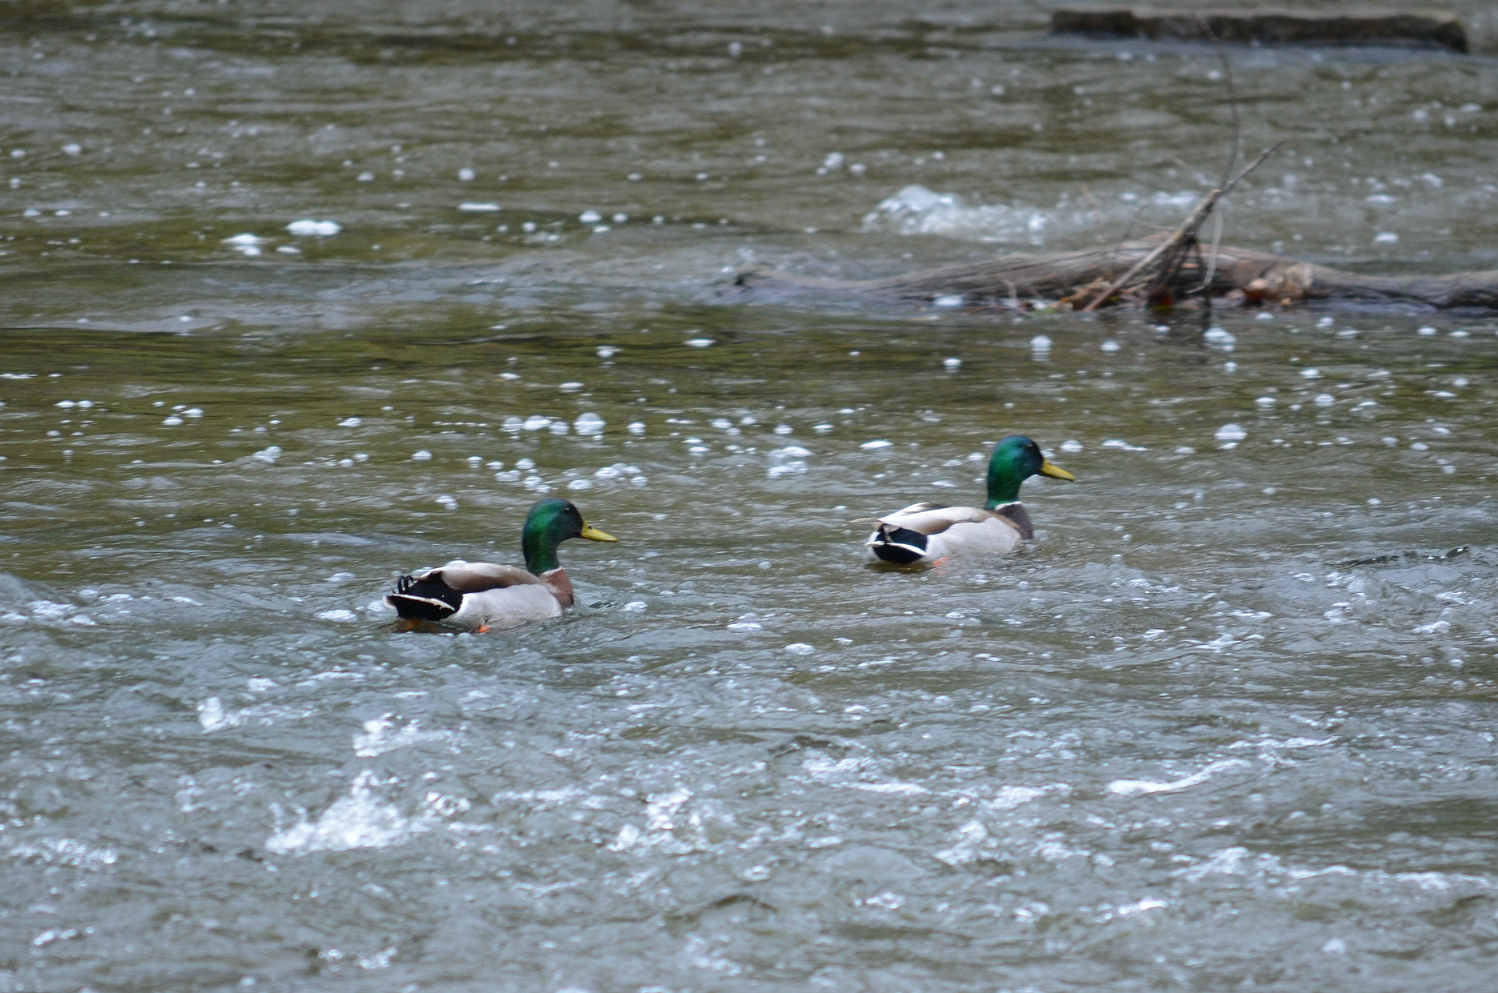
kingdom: Animalia
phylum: Chordata
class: Aves
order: Anseriformes
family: Anatidae
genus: Anas
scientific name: Anas platyrhynchos
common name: Mallard
